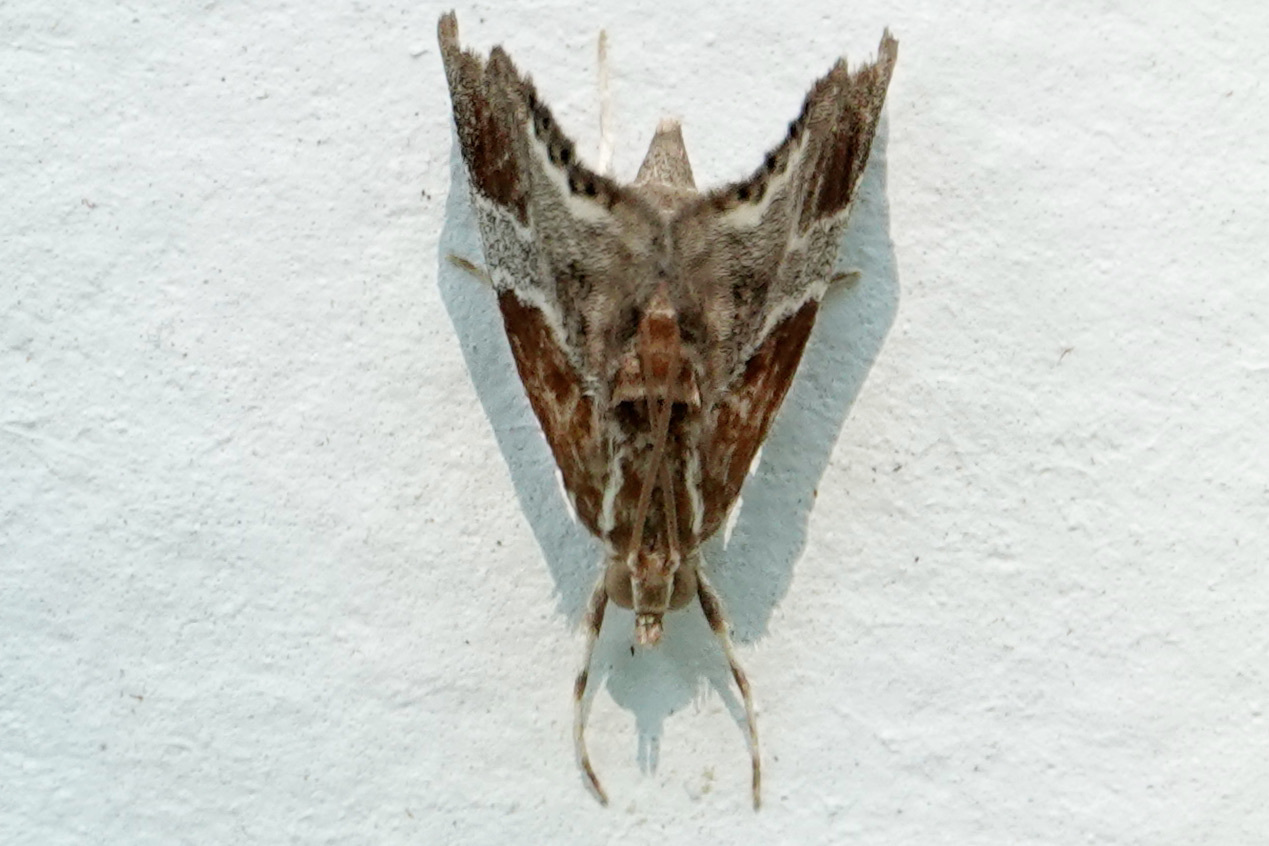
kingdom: Animalia
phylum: Arthropoda
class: Insecta
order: Lepidoptera
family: Crambidae
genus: Chalcoela
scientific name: Chalcoela pegasalis
